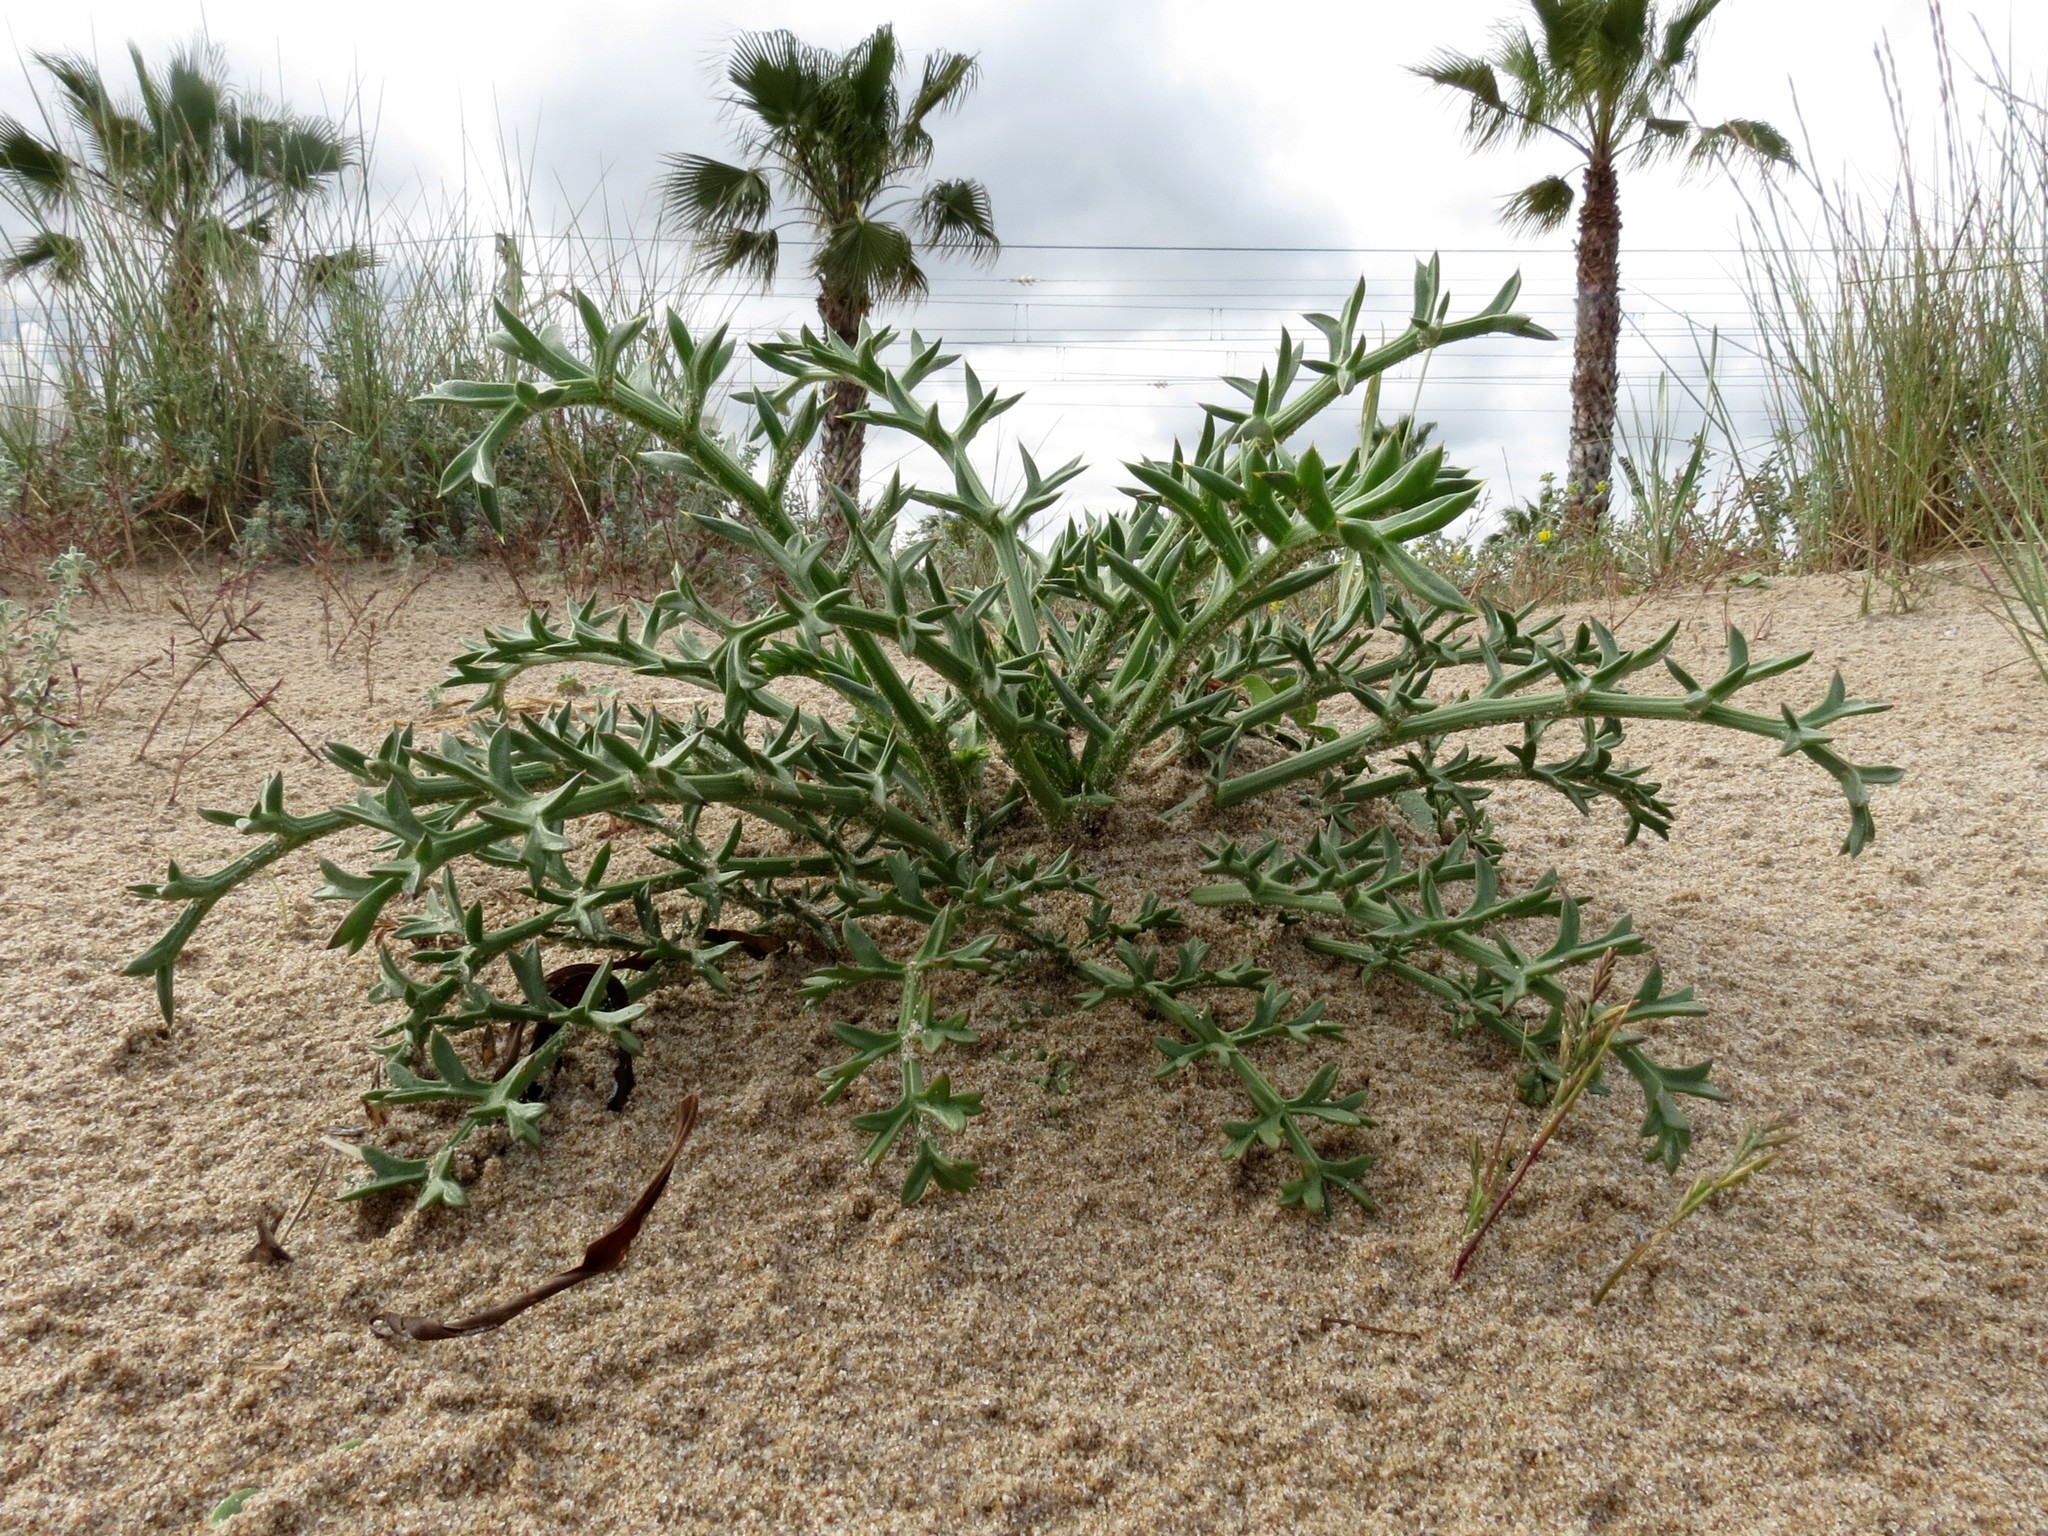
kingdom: Plantae
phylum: Tracheophyta
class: Magnoliopsida
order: Apiales
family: Apiaceae
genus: Echinophora
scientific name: Echinophora spinosa
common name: Prickly samphire
